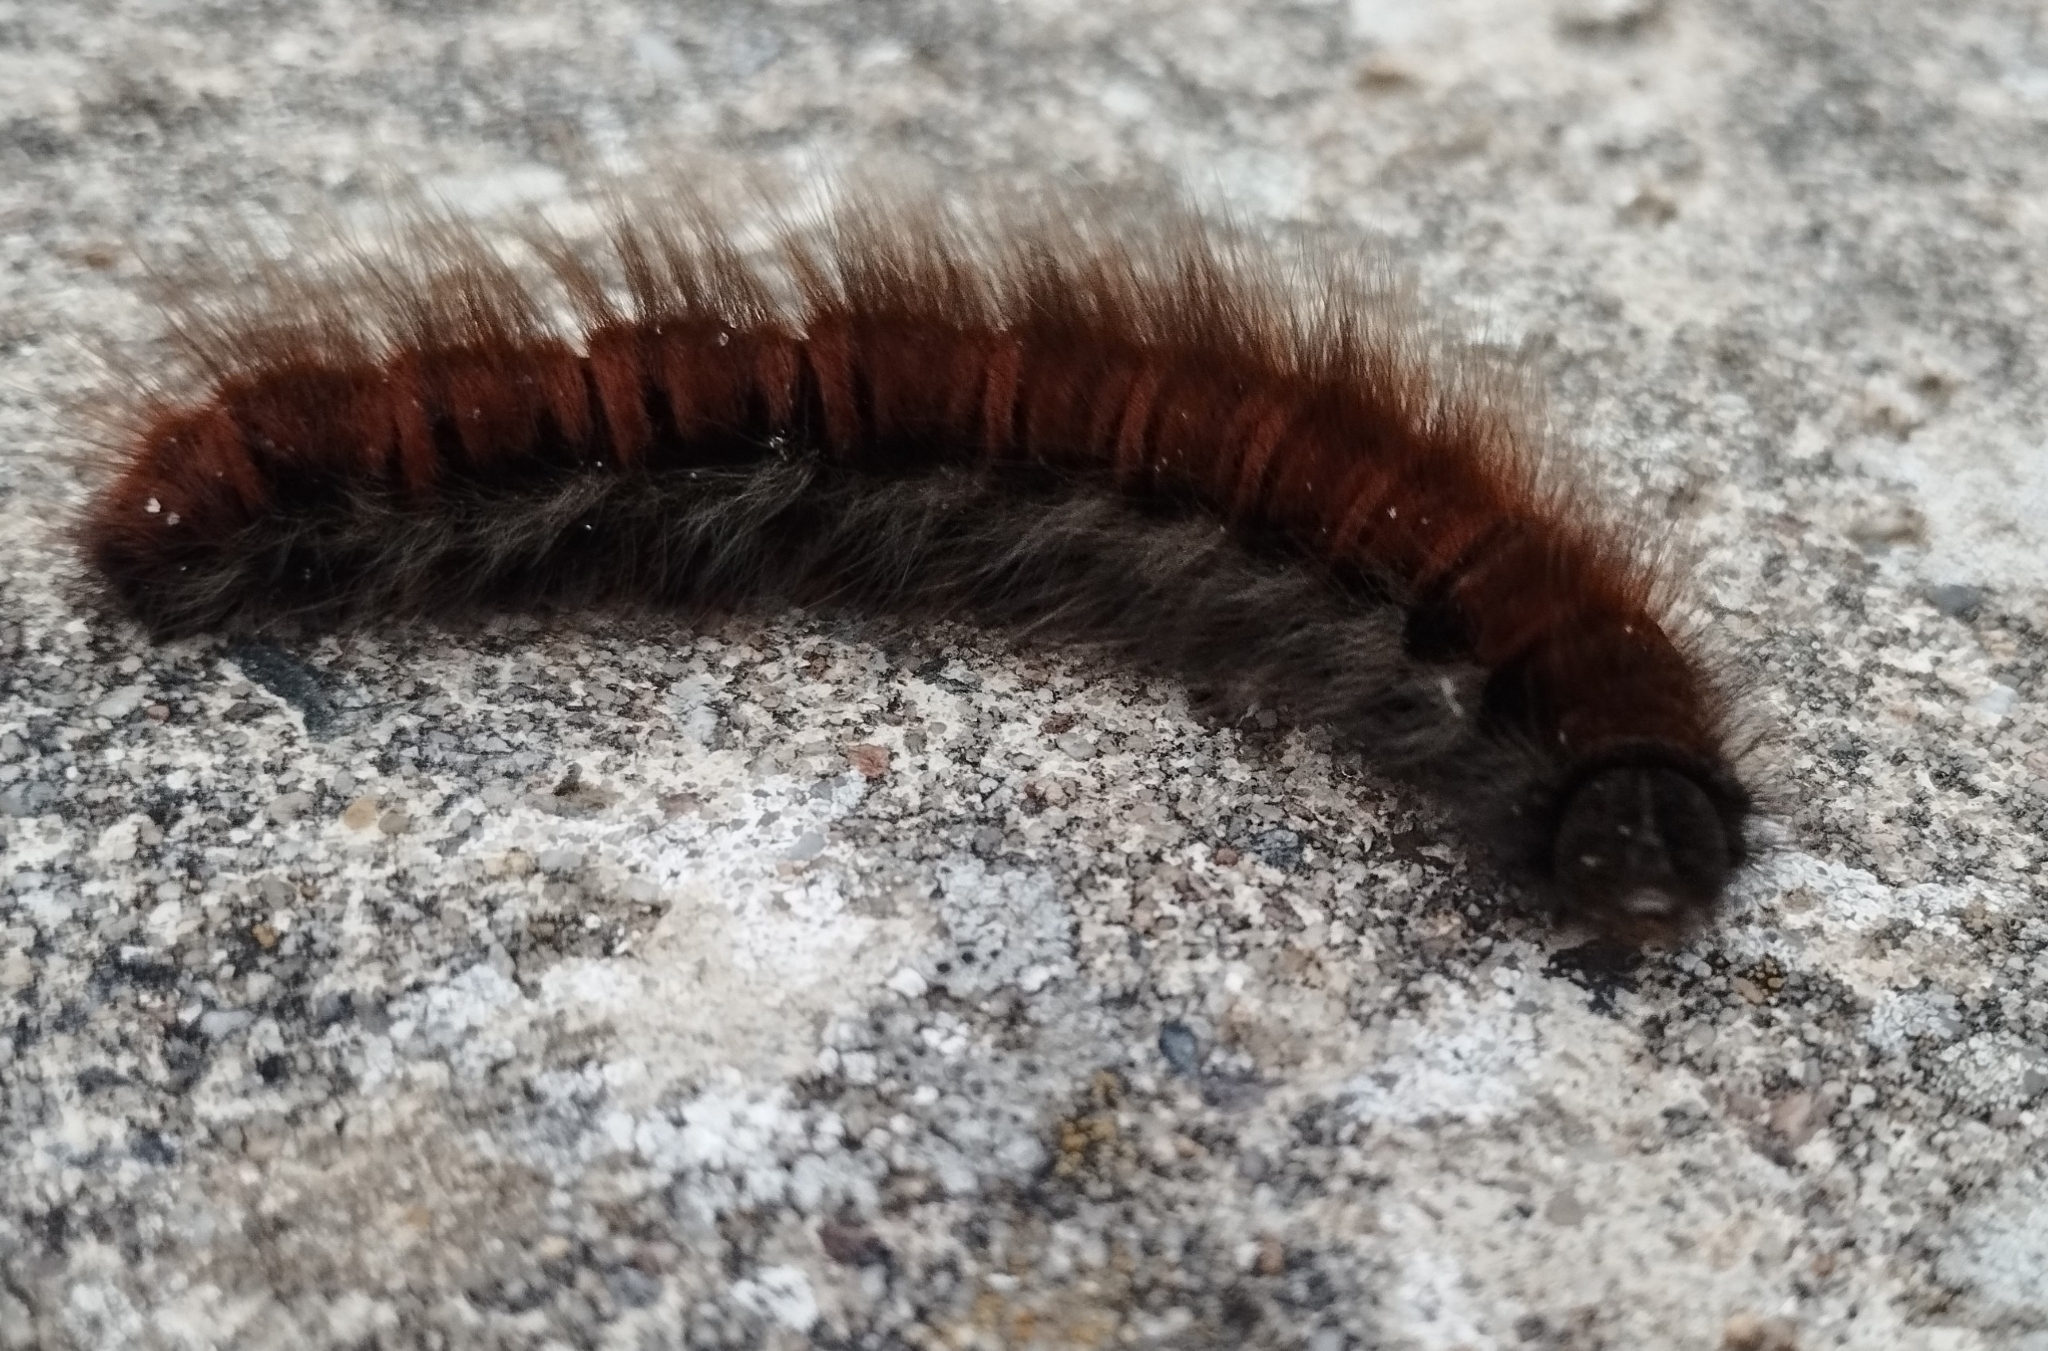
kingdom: Animalia
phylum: Arthropoda
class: Insecta
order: Lepidoptera
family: Lasiocampidae
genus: Macrothylacia
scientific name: Macrothylacia rubi
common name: Fox moth
